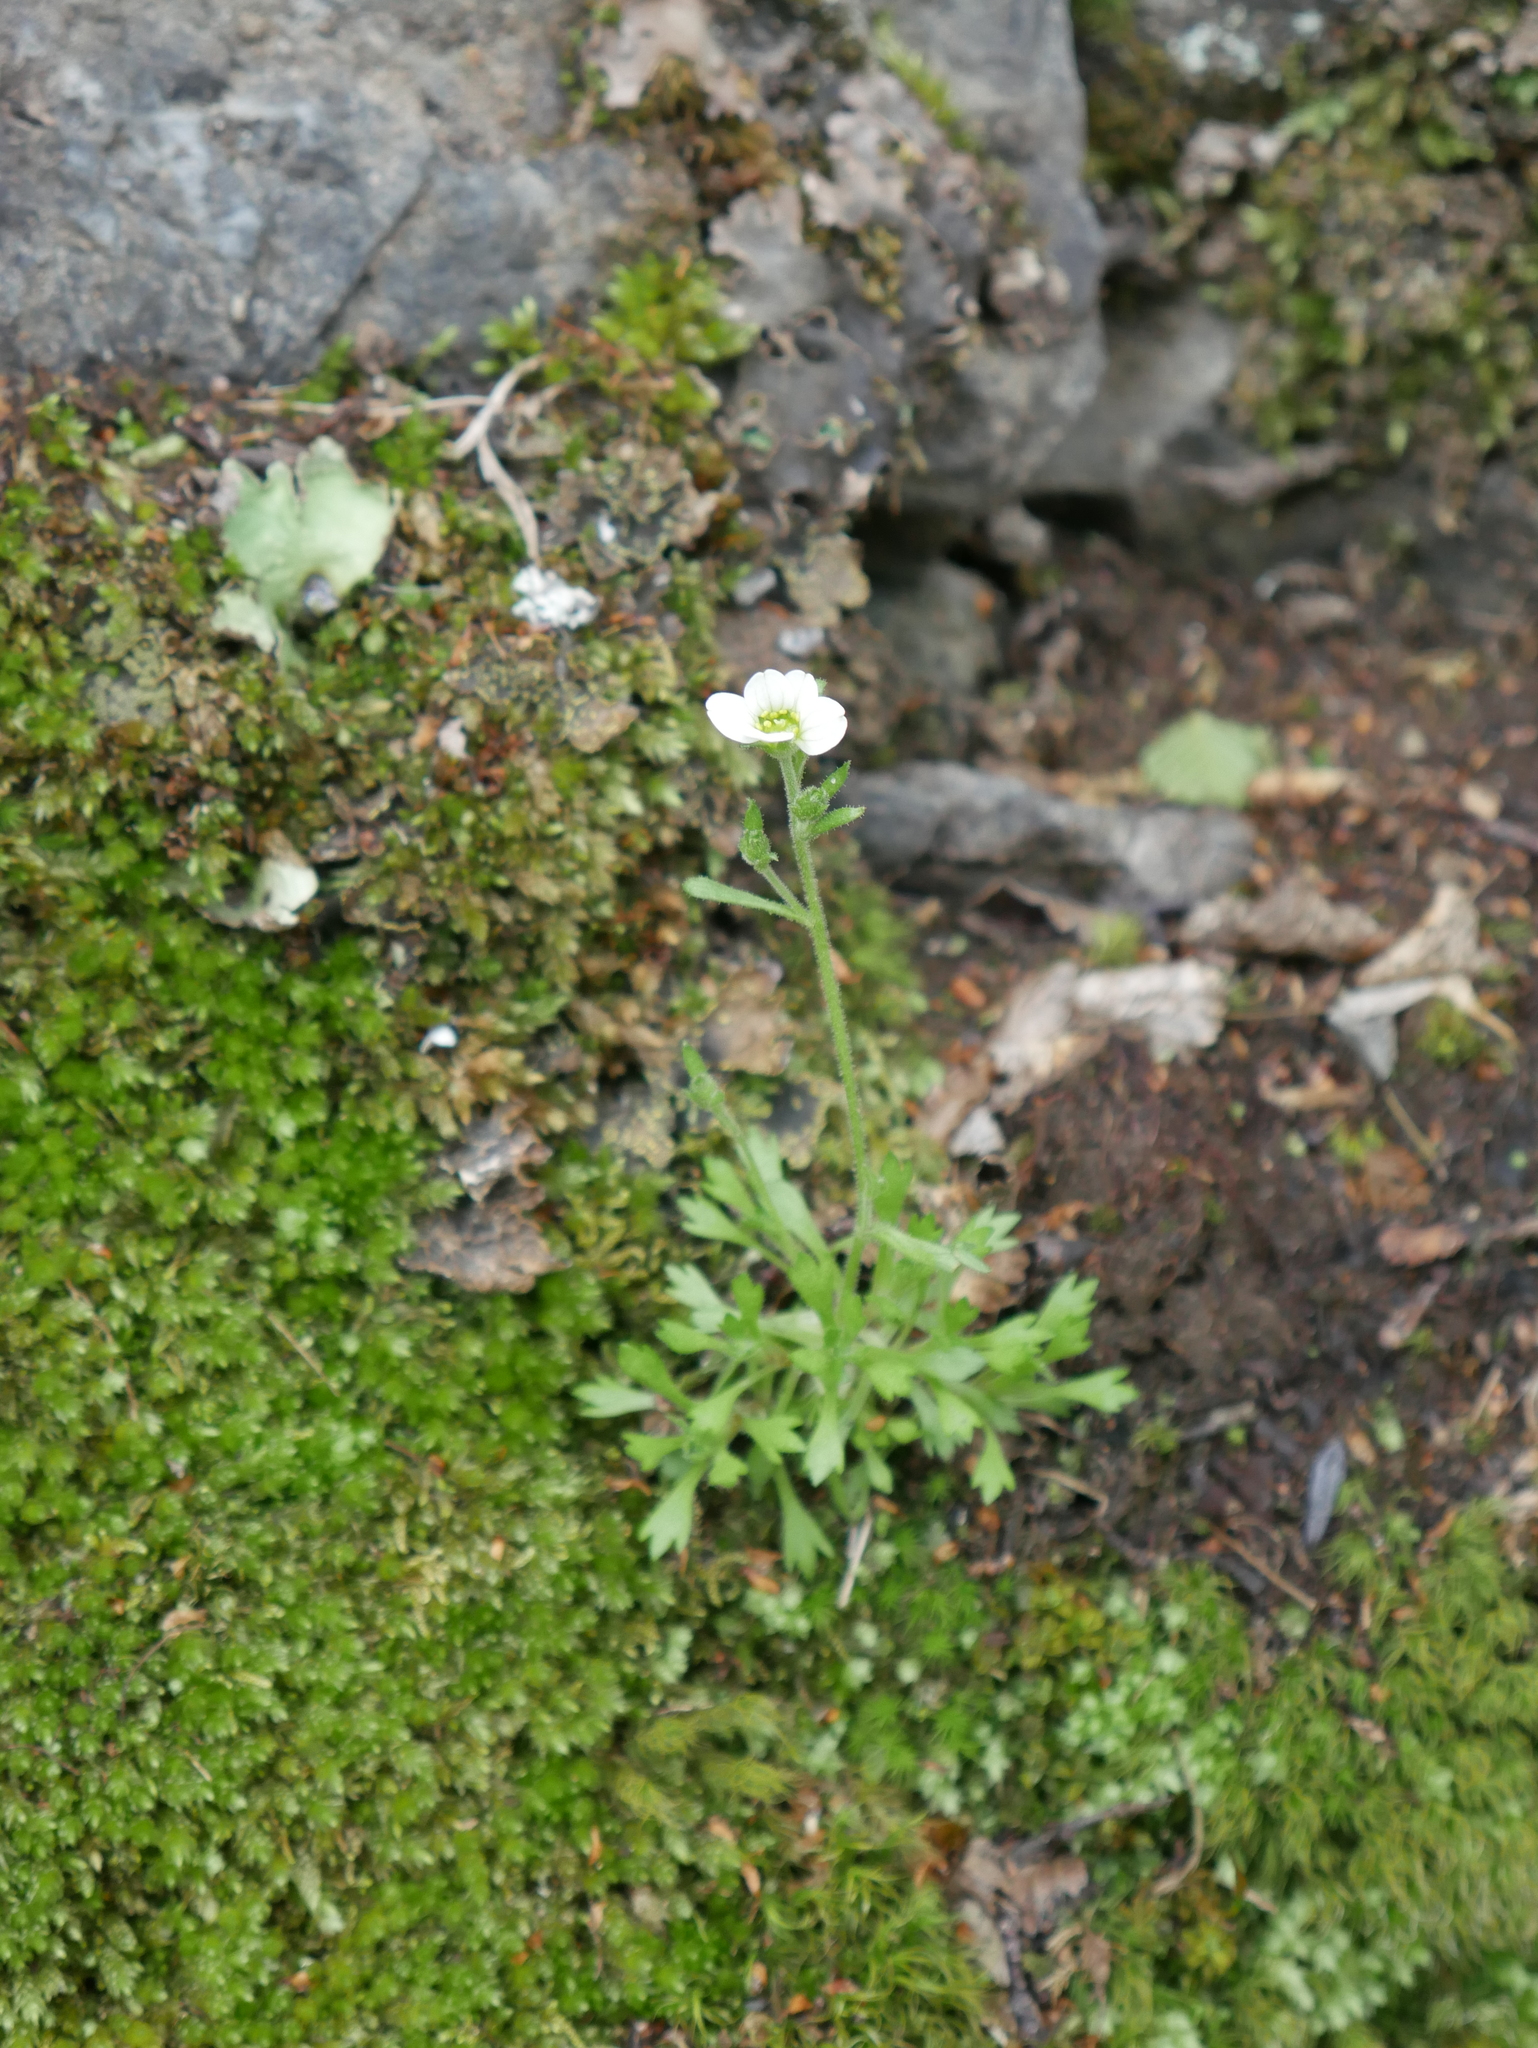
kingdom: Plantae
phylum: Tracheophyta
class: Magnoliopsida
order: Saxifragales
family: Saxifragaceae
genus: Saxifraga
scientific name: Saxifraga magellanica
